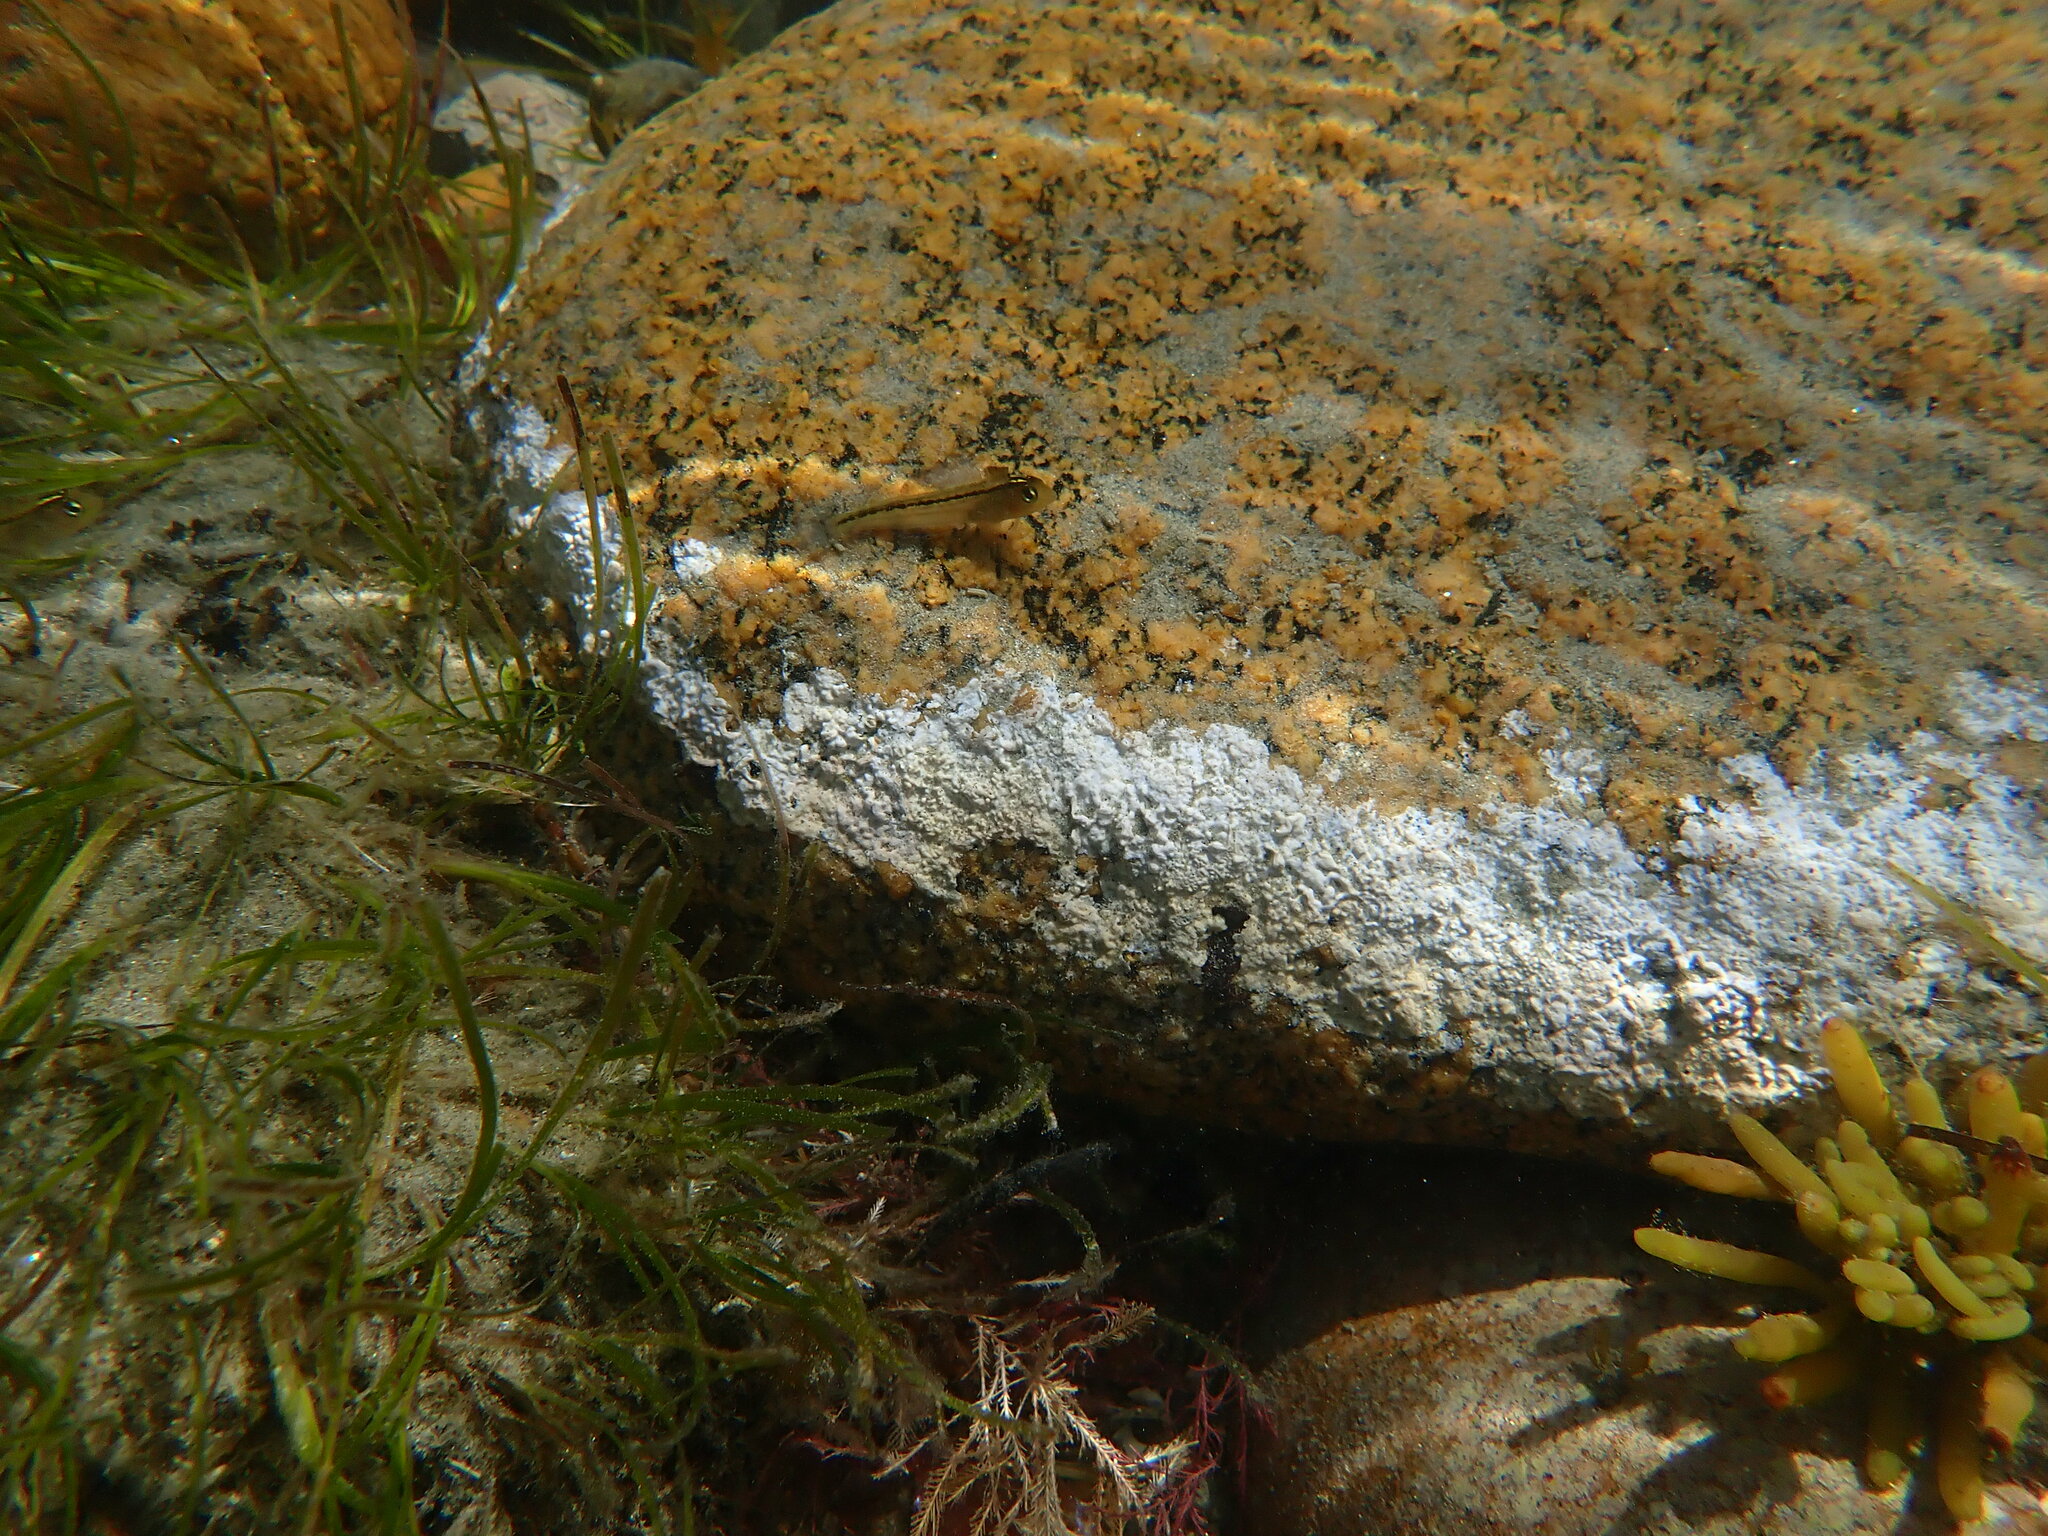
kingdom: Animalia
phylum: Chordata
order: Perciformes
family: Tripterygiidae
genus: Forsterygion
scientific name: Forsterygion lapillum
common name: Common triplefin
